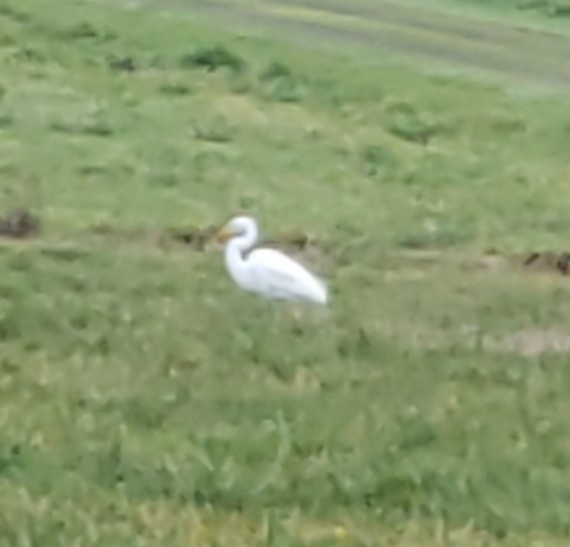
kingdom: Animalia
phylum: Chordata
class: Aves
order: Pelecaniformes
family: Ardeidae
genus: Ardea
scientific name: Ardea alba
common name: Great egret
